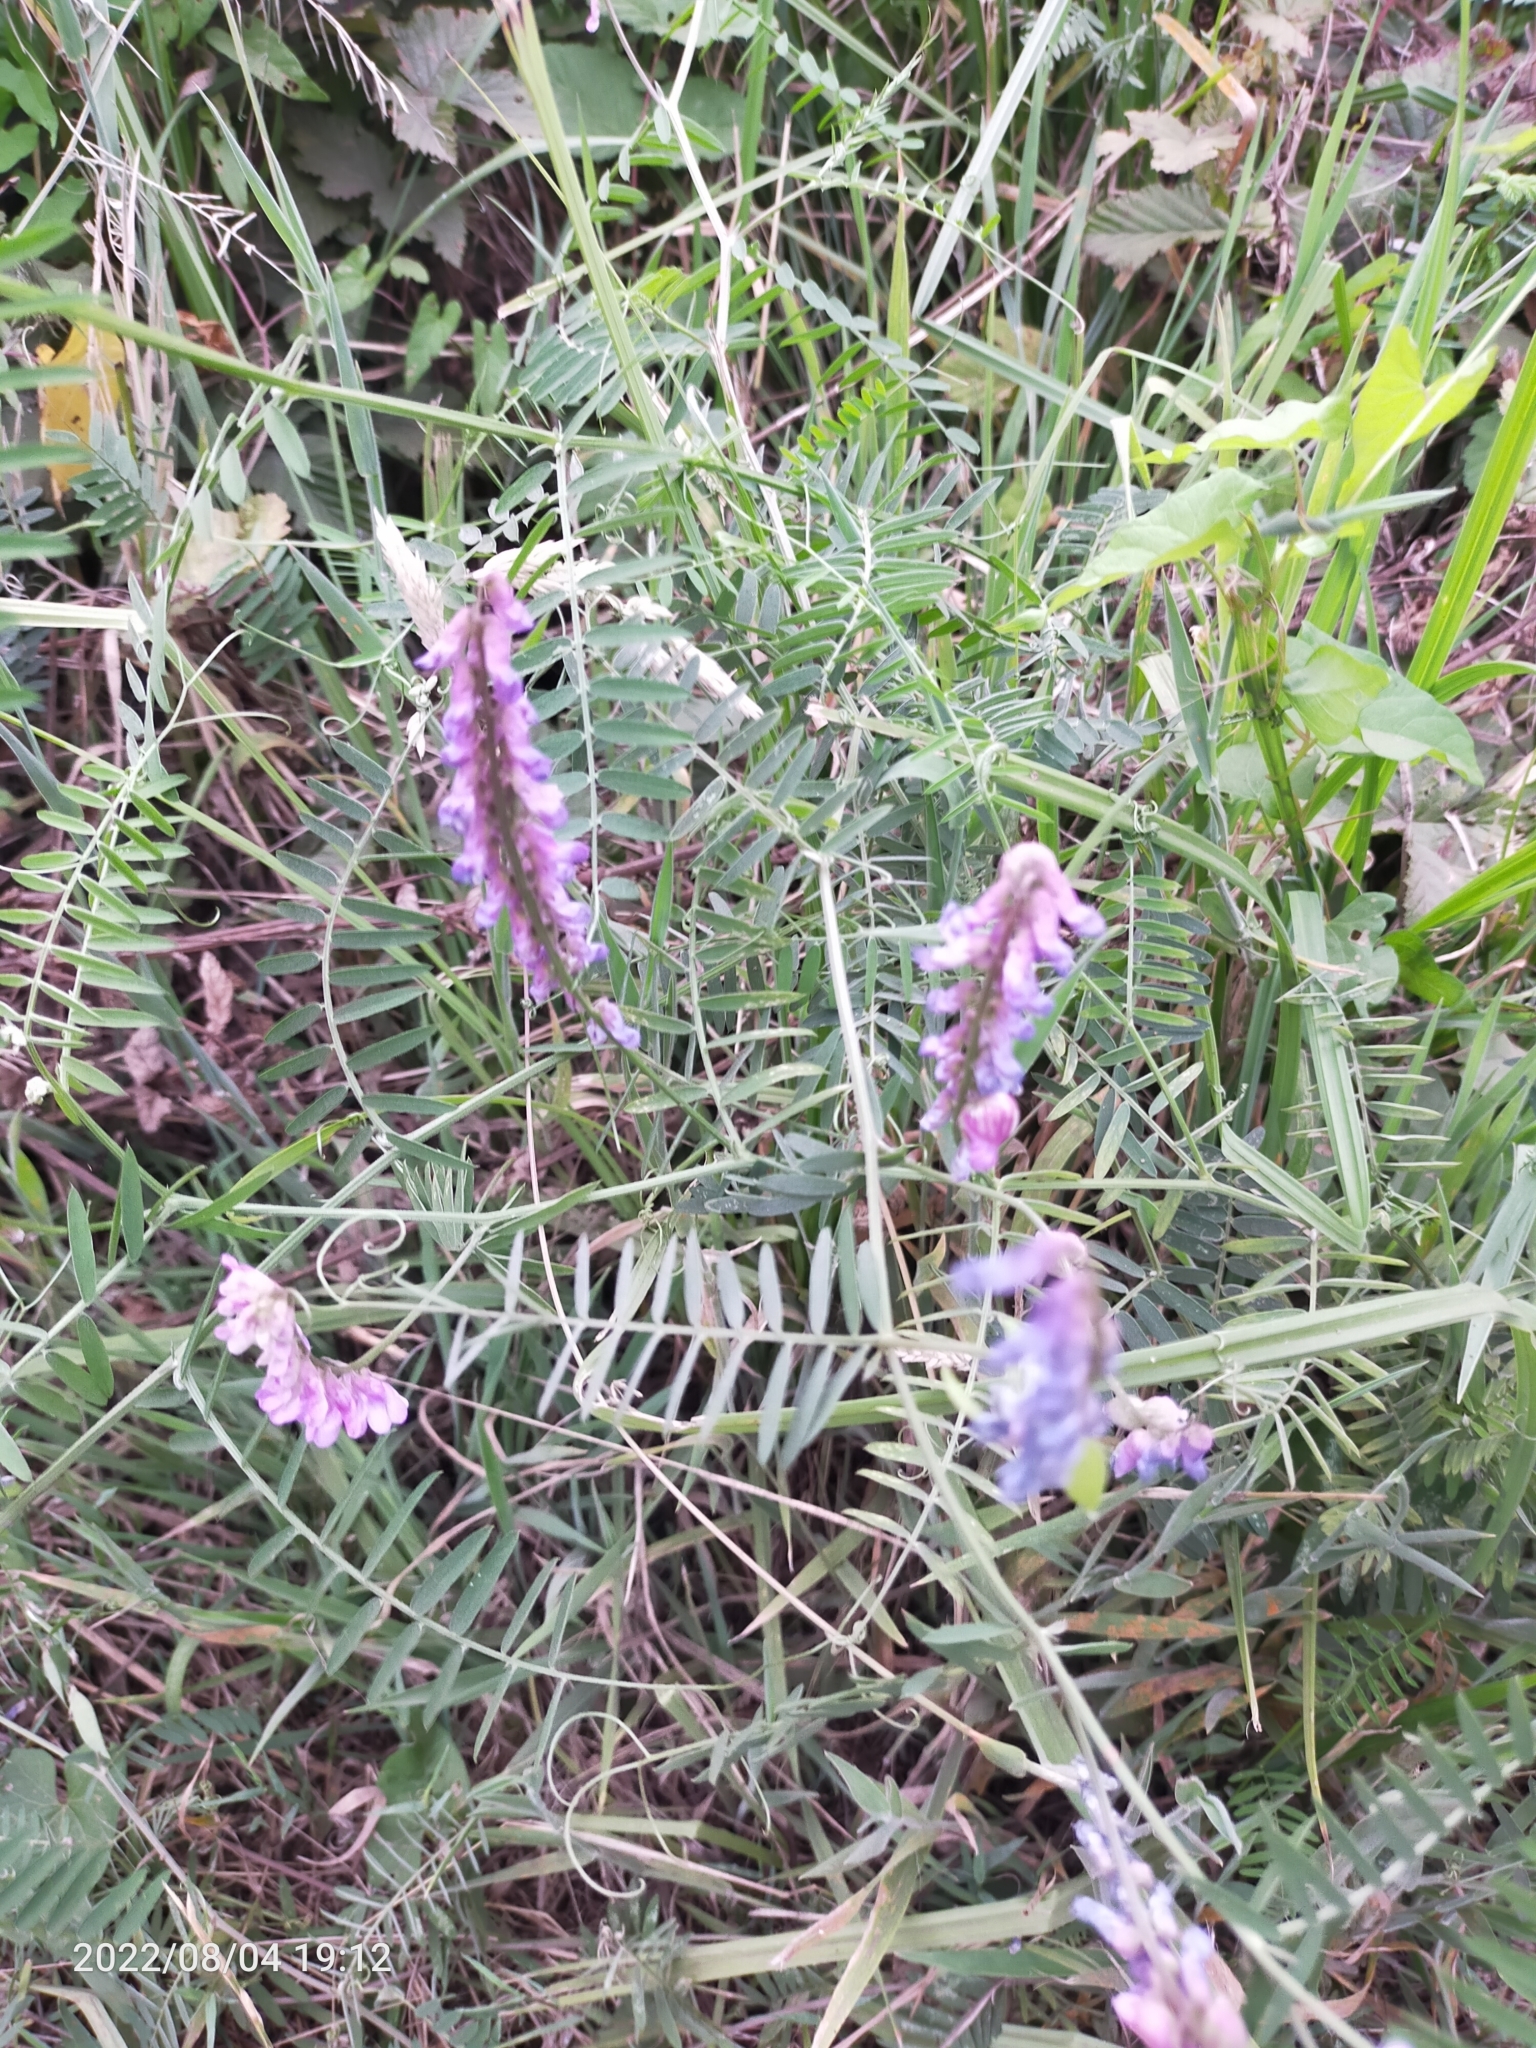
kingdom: Plantae
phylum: Tracheophyta
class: Magnoliopsida
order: Fabales
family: Fabaceae
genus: Vicia
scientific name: Vicia cracca
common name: Bird vetch
